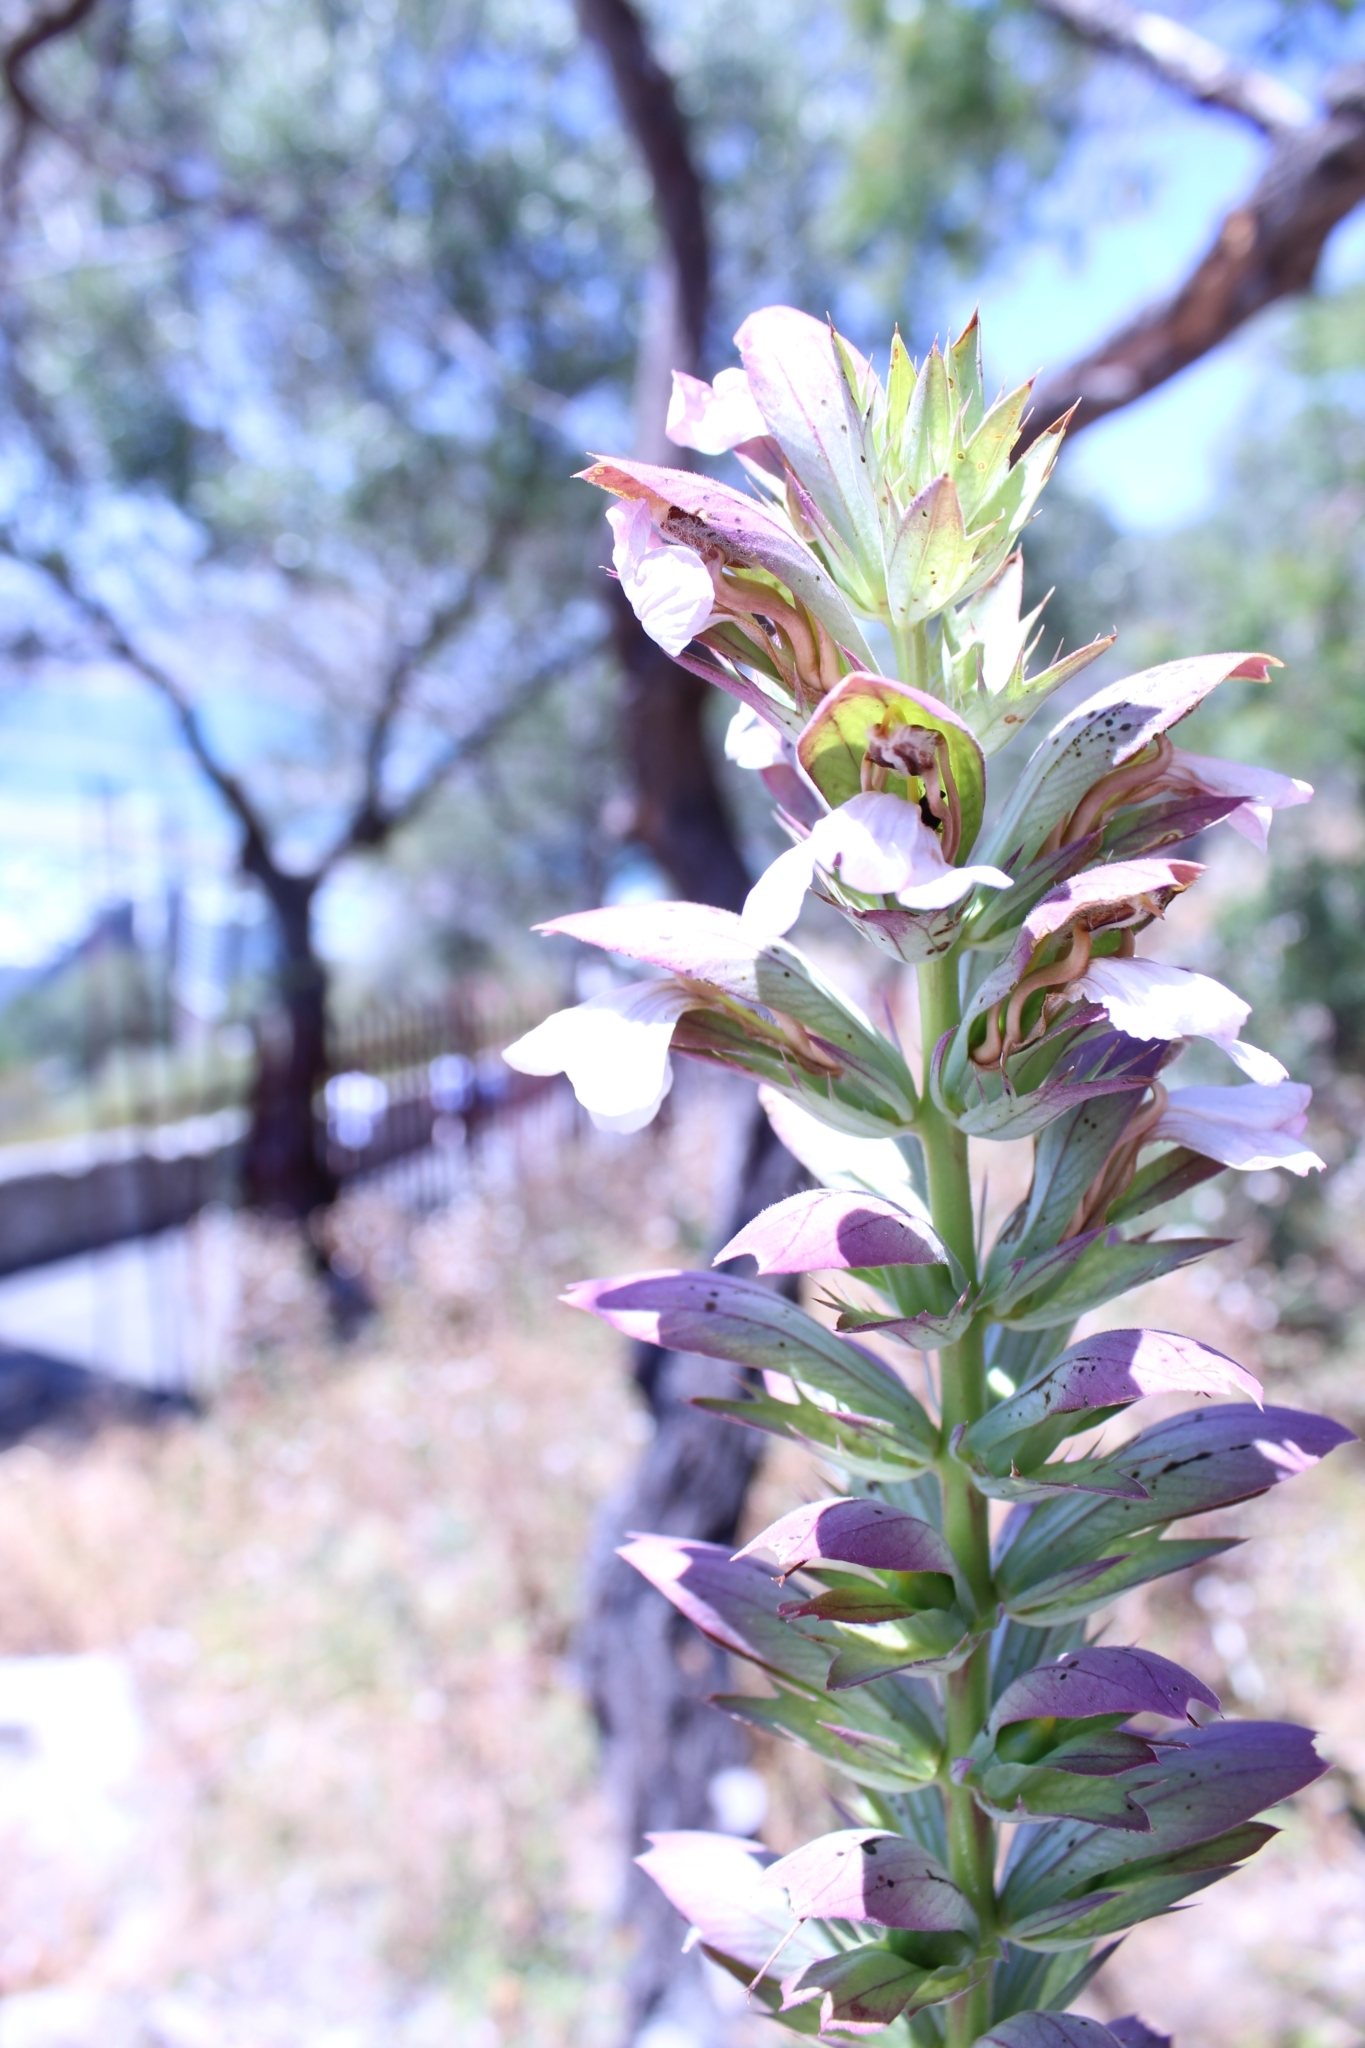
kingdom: Plantae
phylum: Tracheophyta
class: Magnoliopsida
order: Lamiales
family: Acanthaceae
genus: Acanthus
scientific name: Acanthus mollis
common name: Bear's-breech
